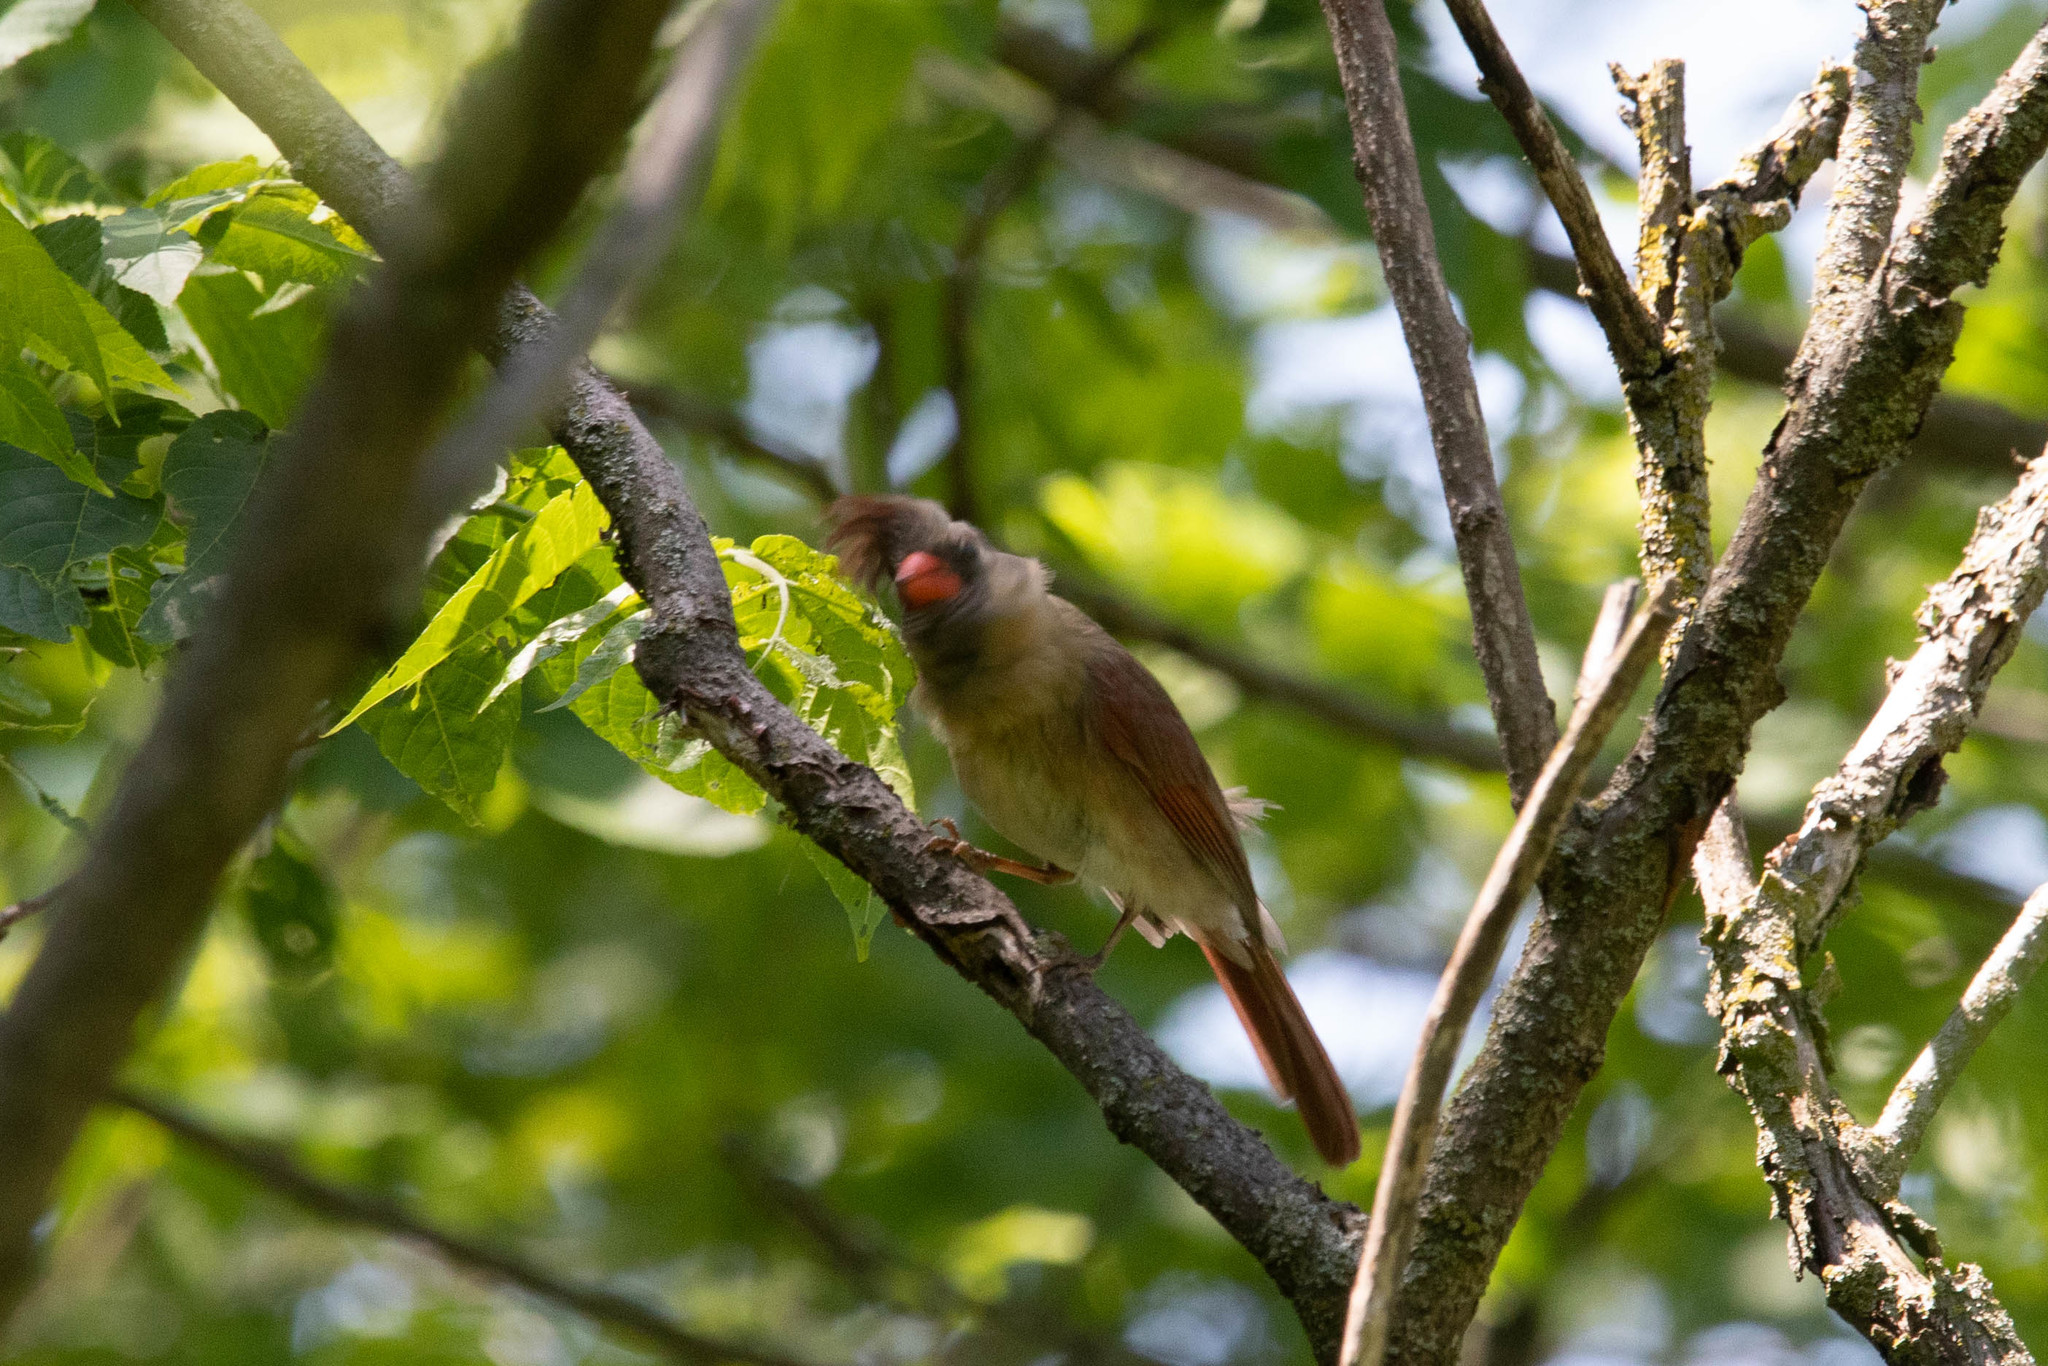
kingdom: Animalia
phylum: Chordata
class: Aves
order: Passeriformes
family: Cardinalidae
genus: Cardinalis
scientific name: Cardinalis cardinalis
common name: Northern cardinal
